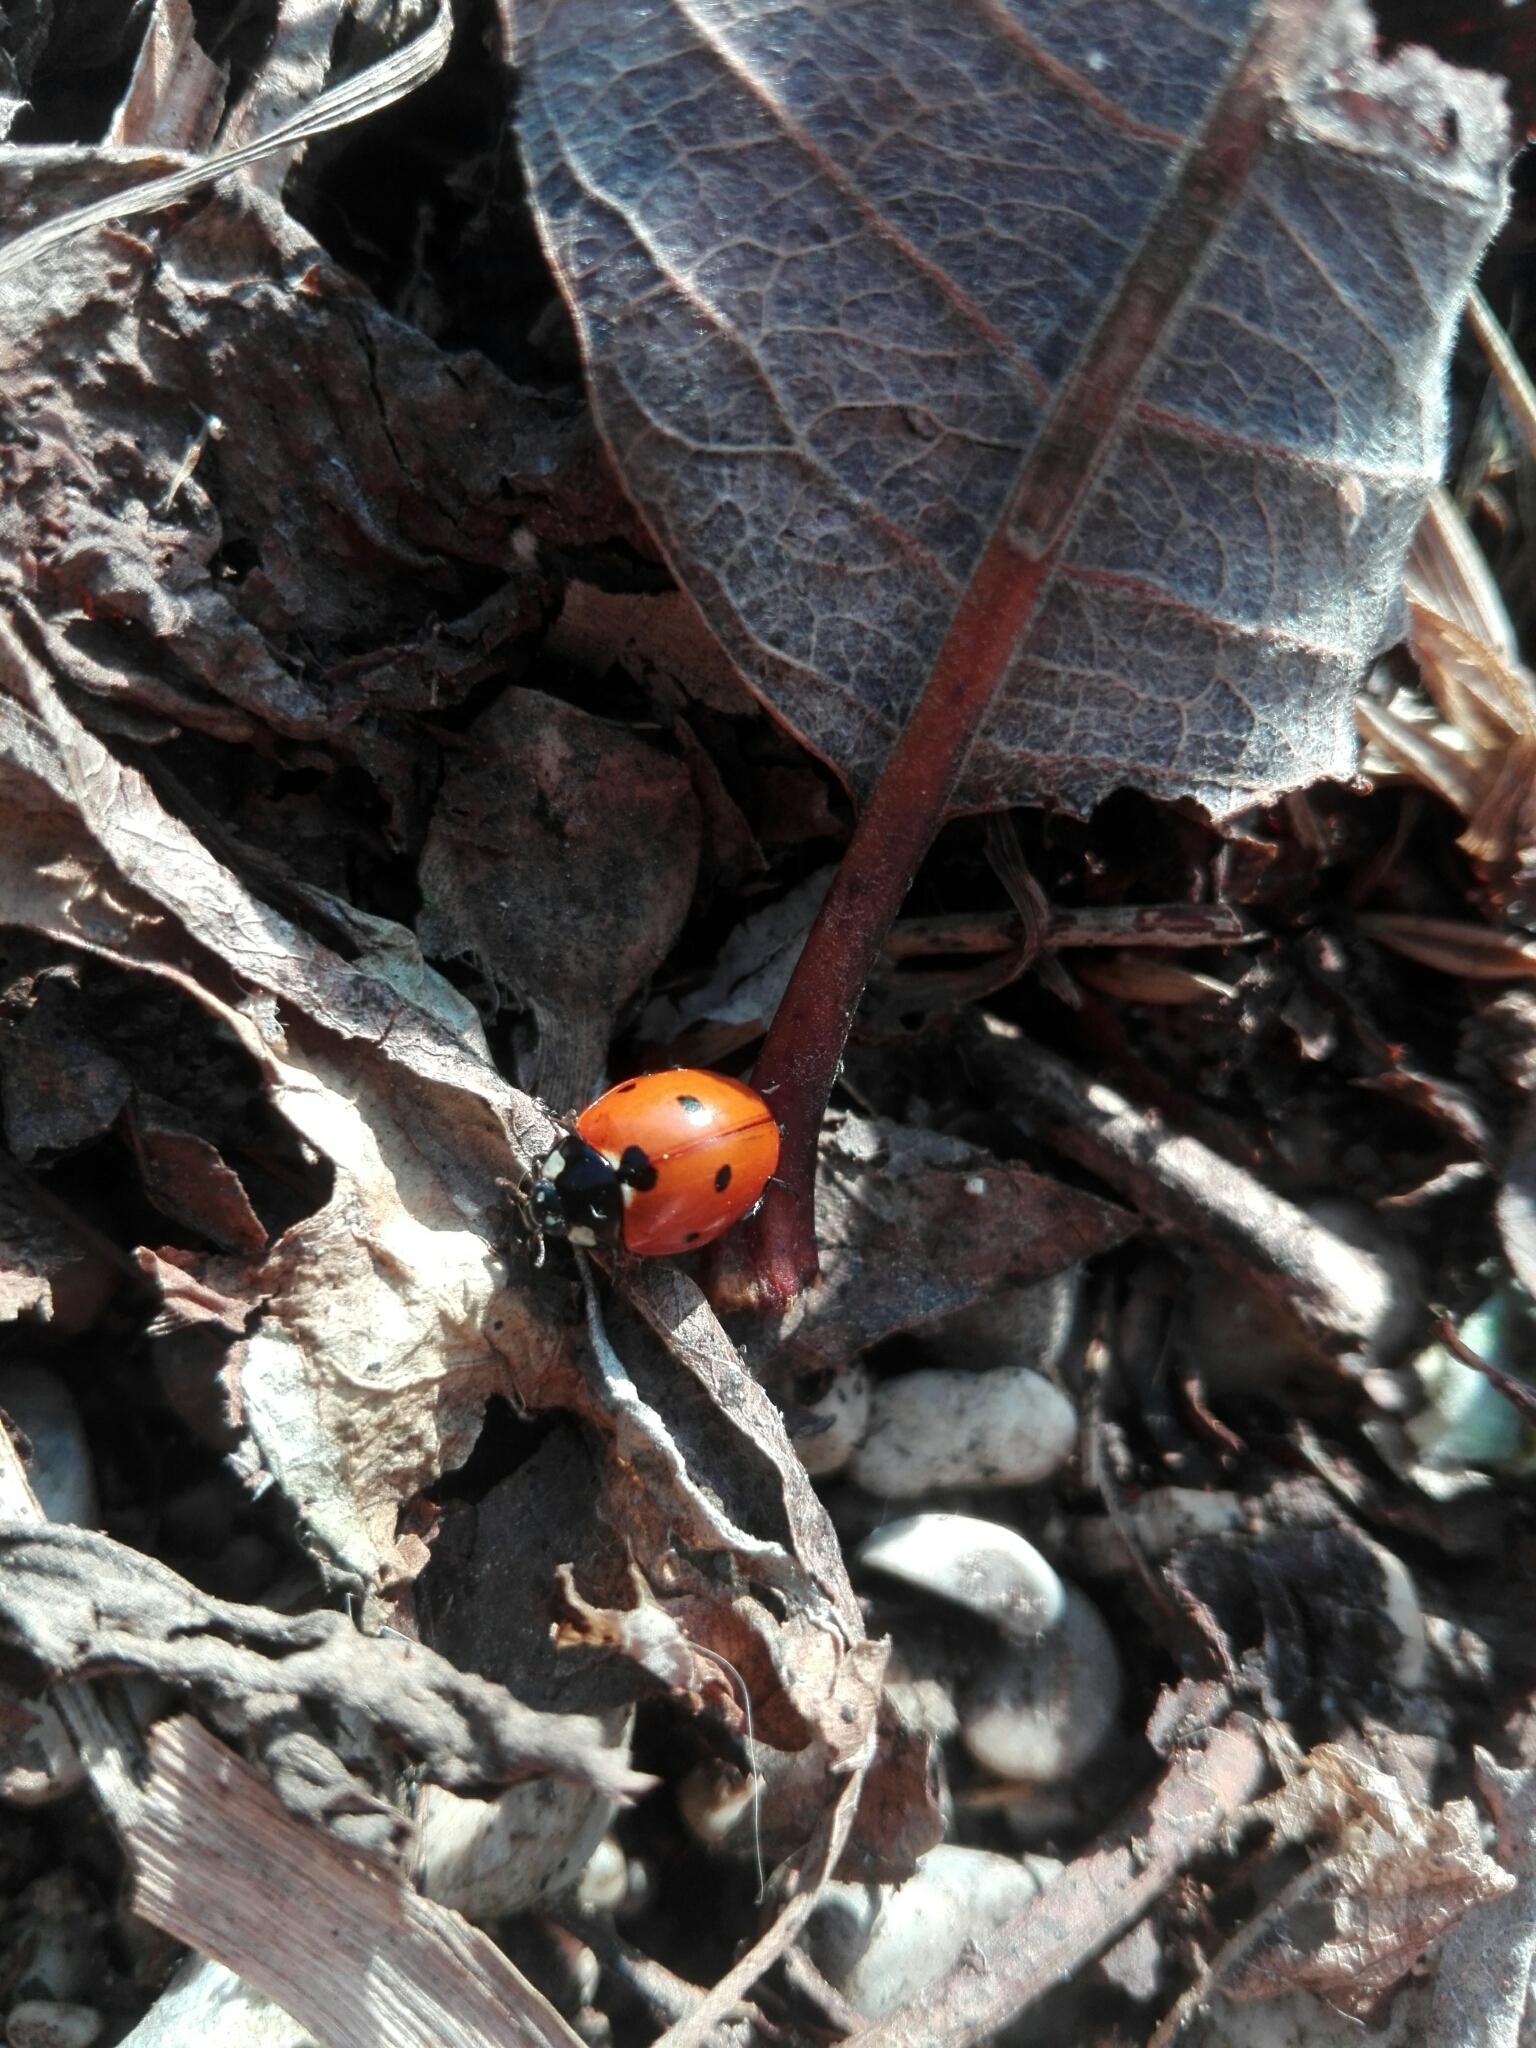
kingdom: Animalia
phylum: Arthropoda
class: Insecta
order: Coleoptera
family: Coccinellidae
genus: Coccinella
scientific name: Coccinella septempunctata
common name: Sevenspotted lady beetle
